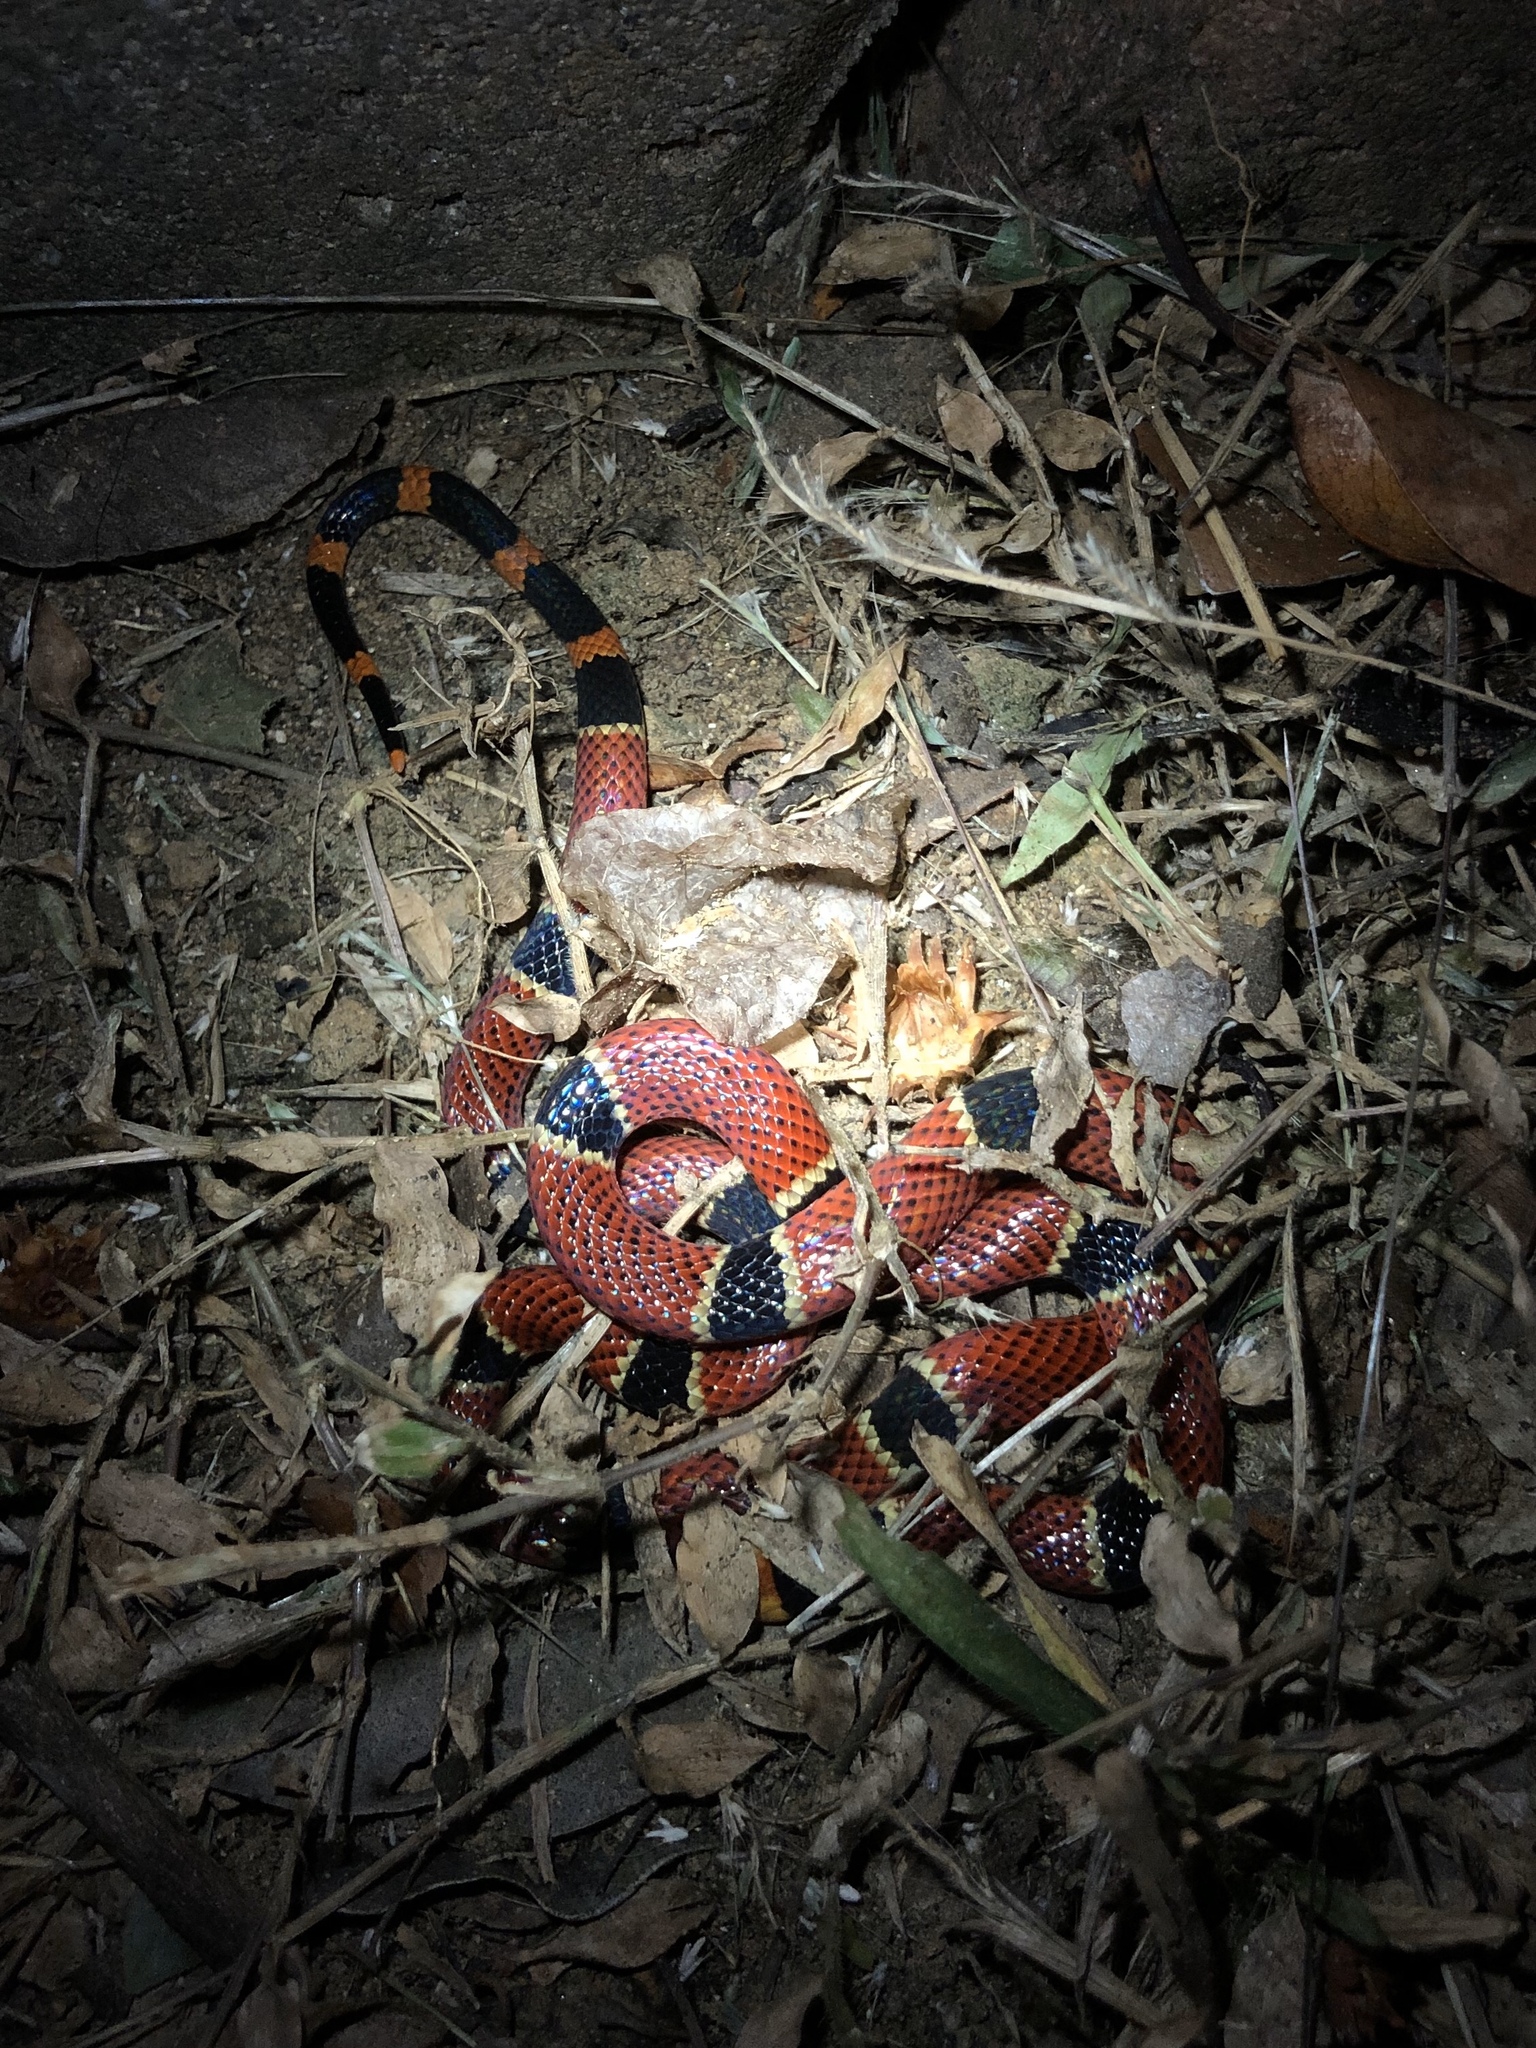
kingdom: Animalia
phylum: Chordata
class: Squamata
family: Elapidae
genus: Micrurus
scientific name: Micrurus nigrocinctus
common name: Babaspul [babaspul]
